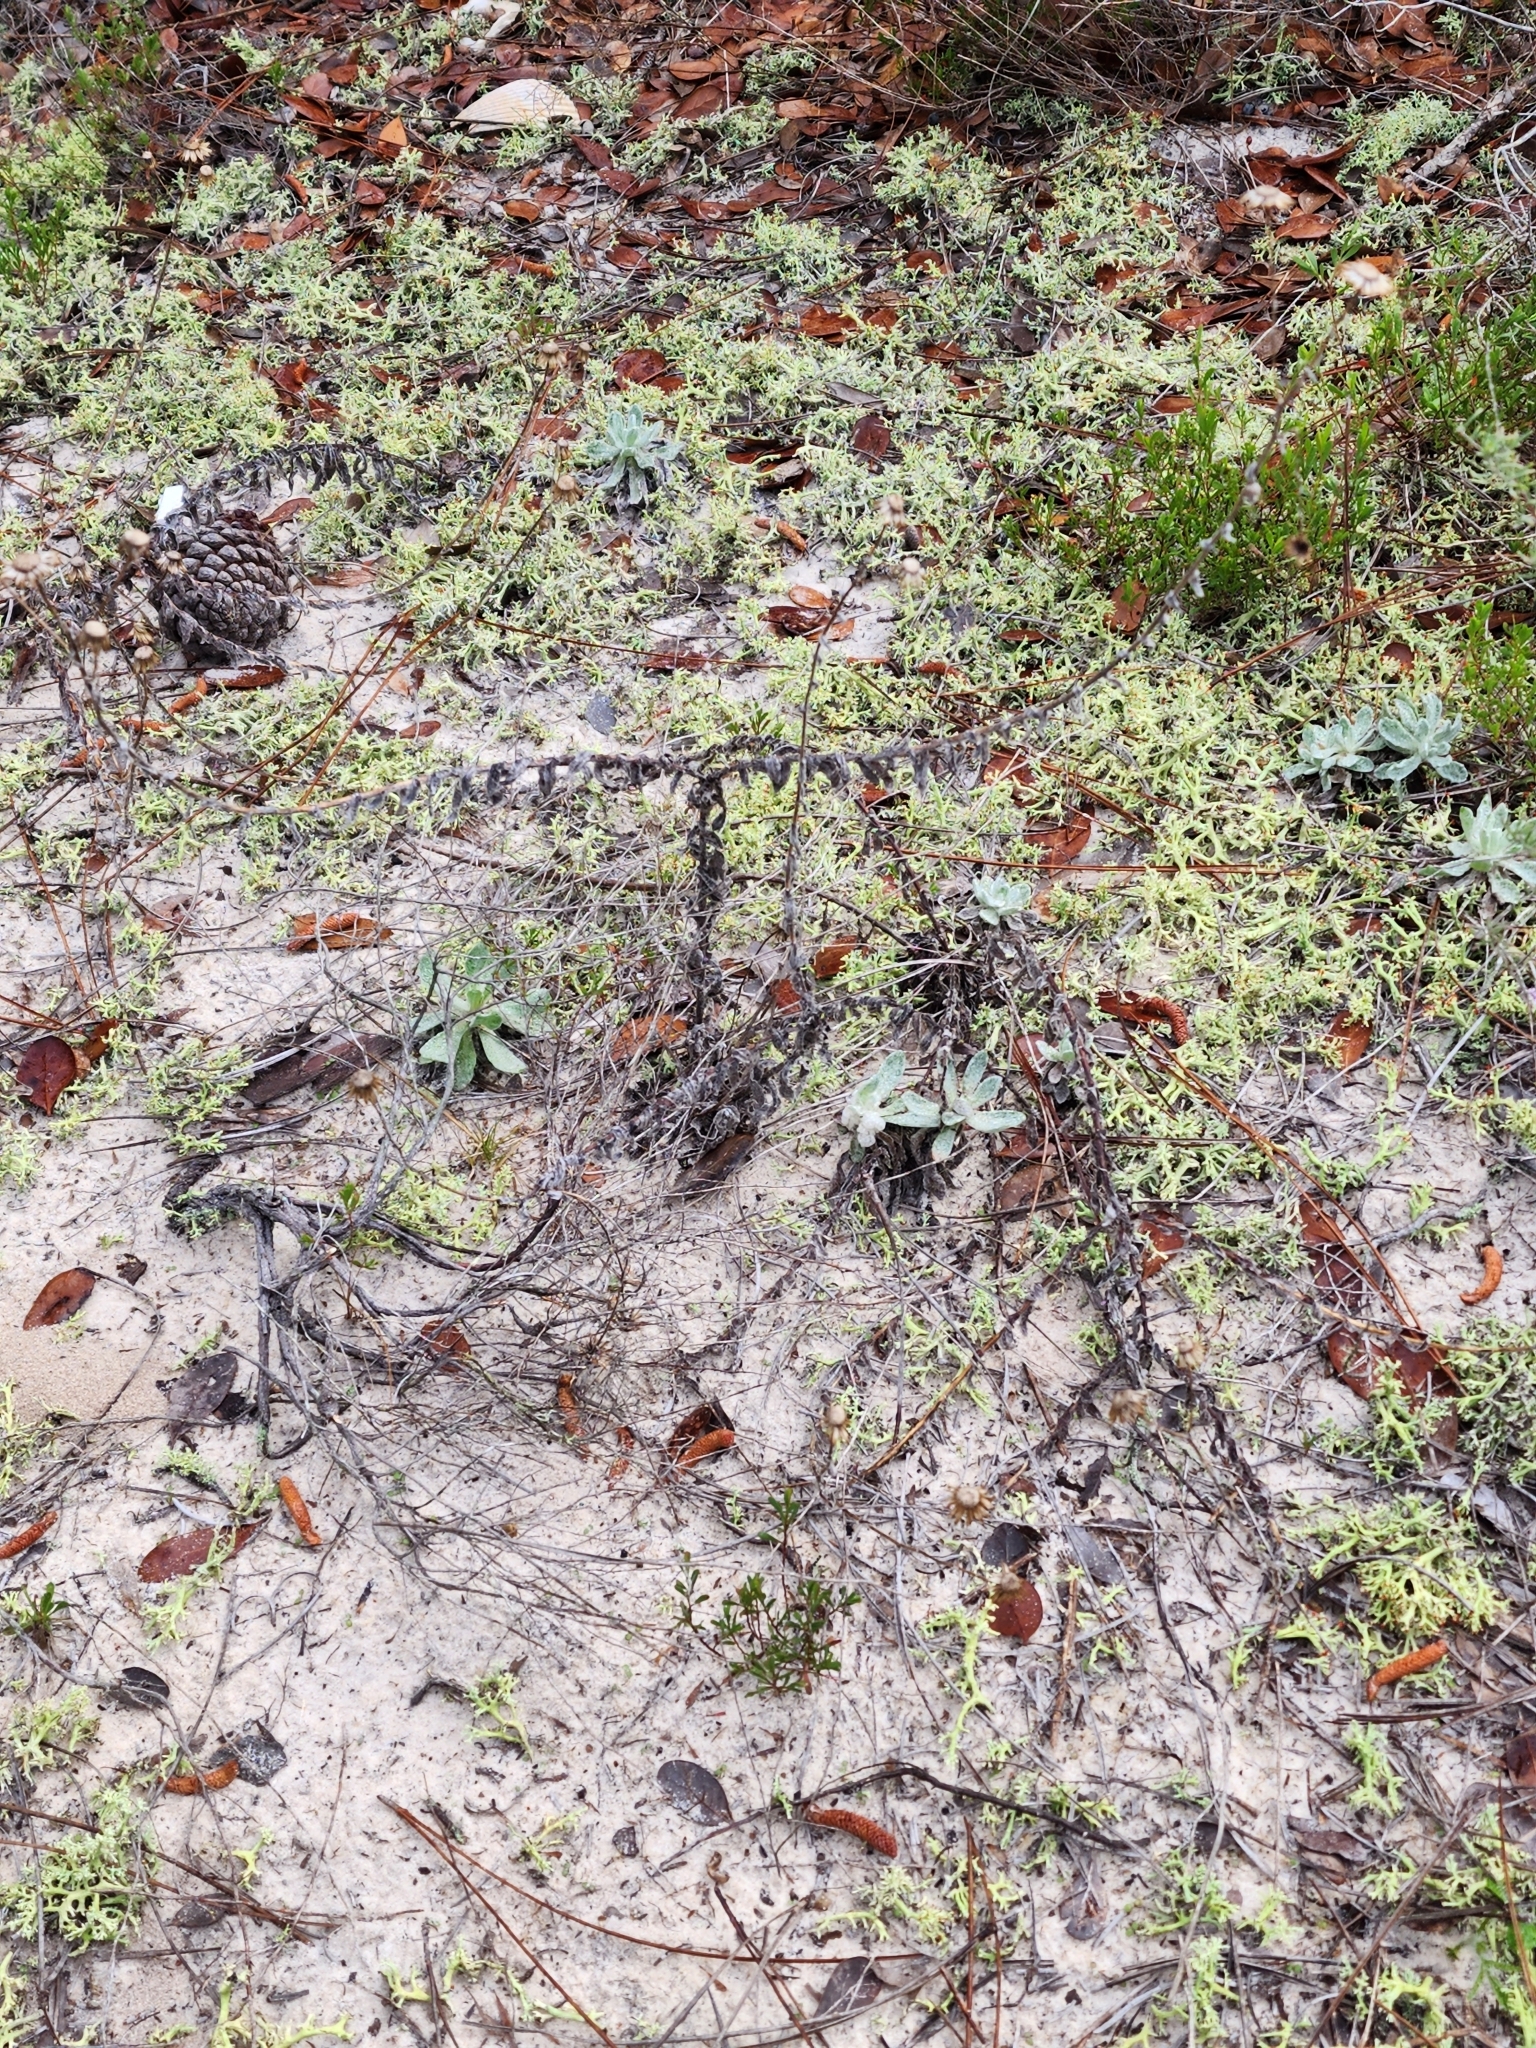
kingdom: Plantae
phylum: Tracheophyta
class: Magnoliopsida
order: Asterales
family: Asteraceae
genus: Chrysopsis
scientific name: Chrysopsis godfreyi
